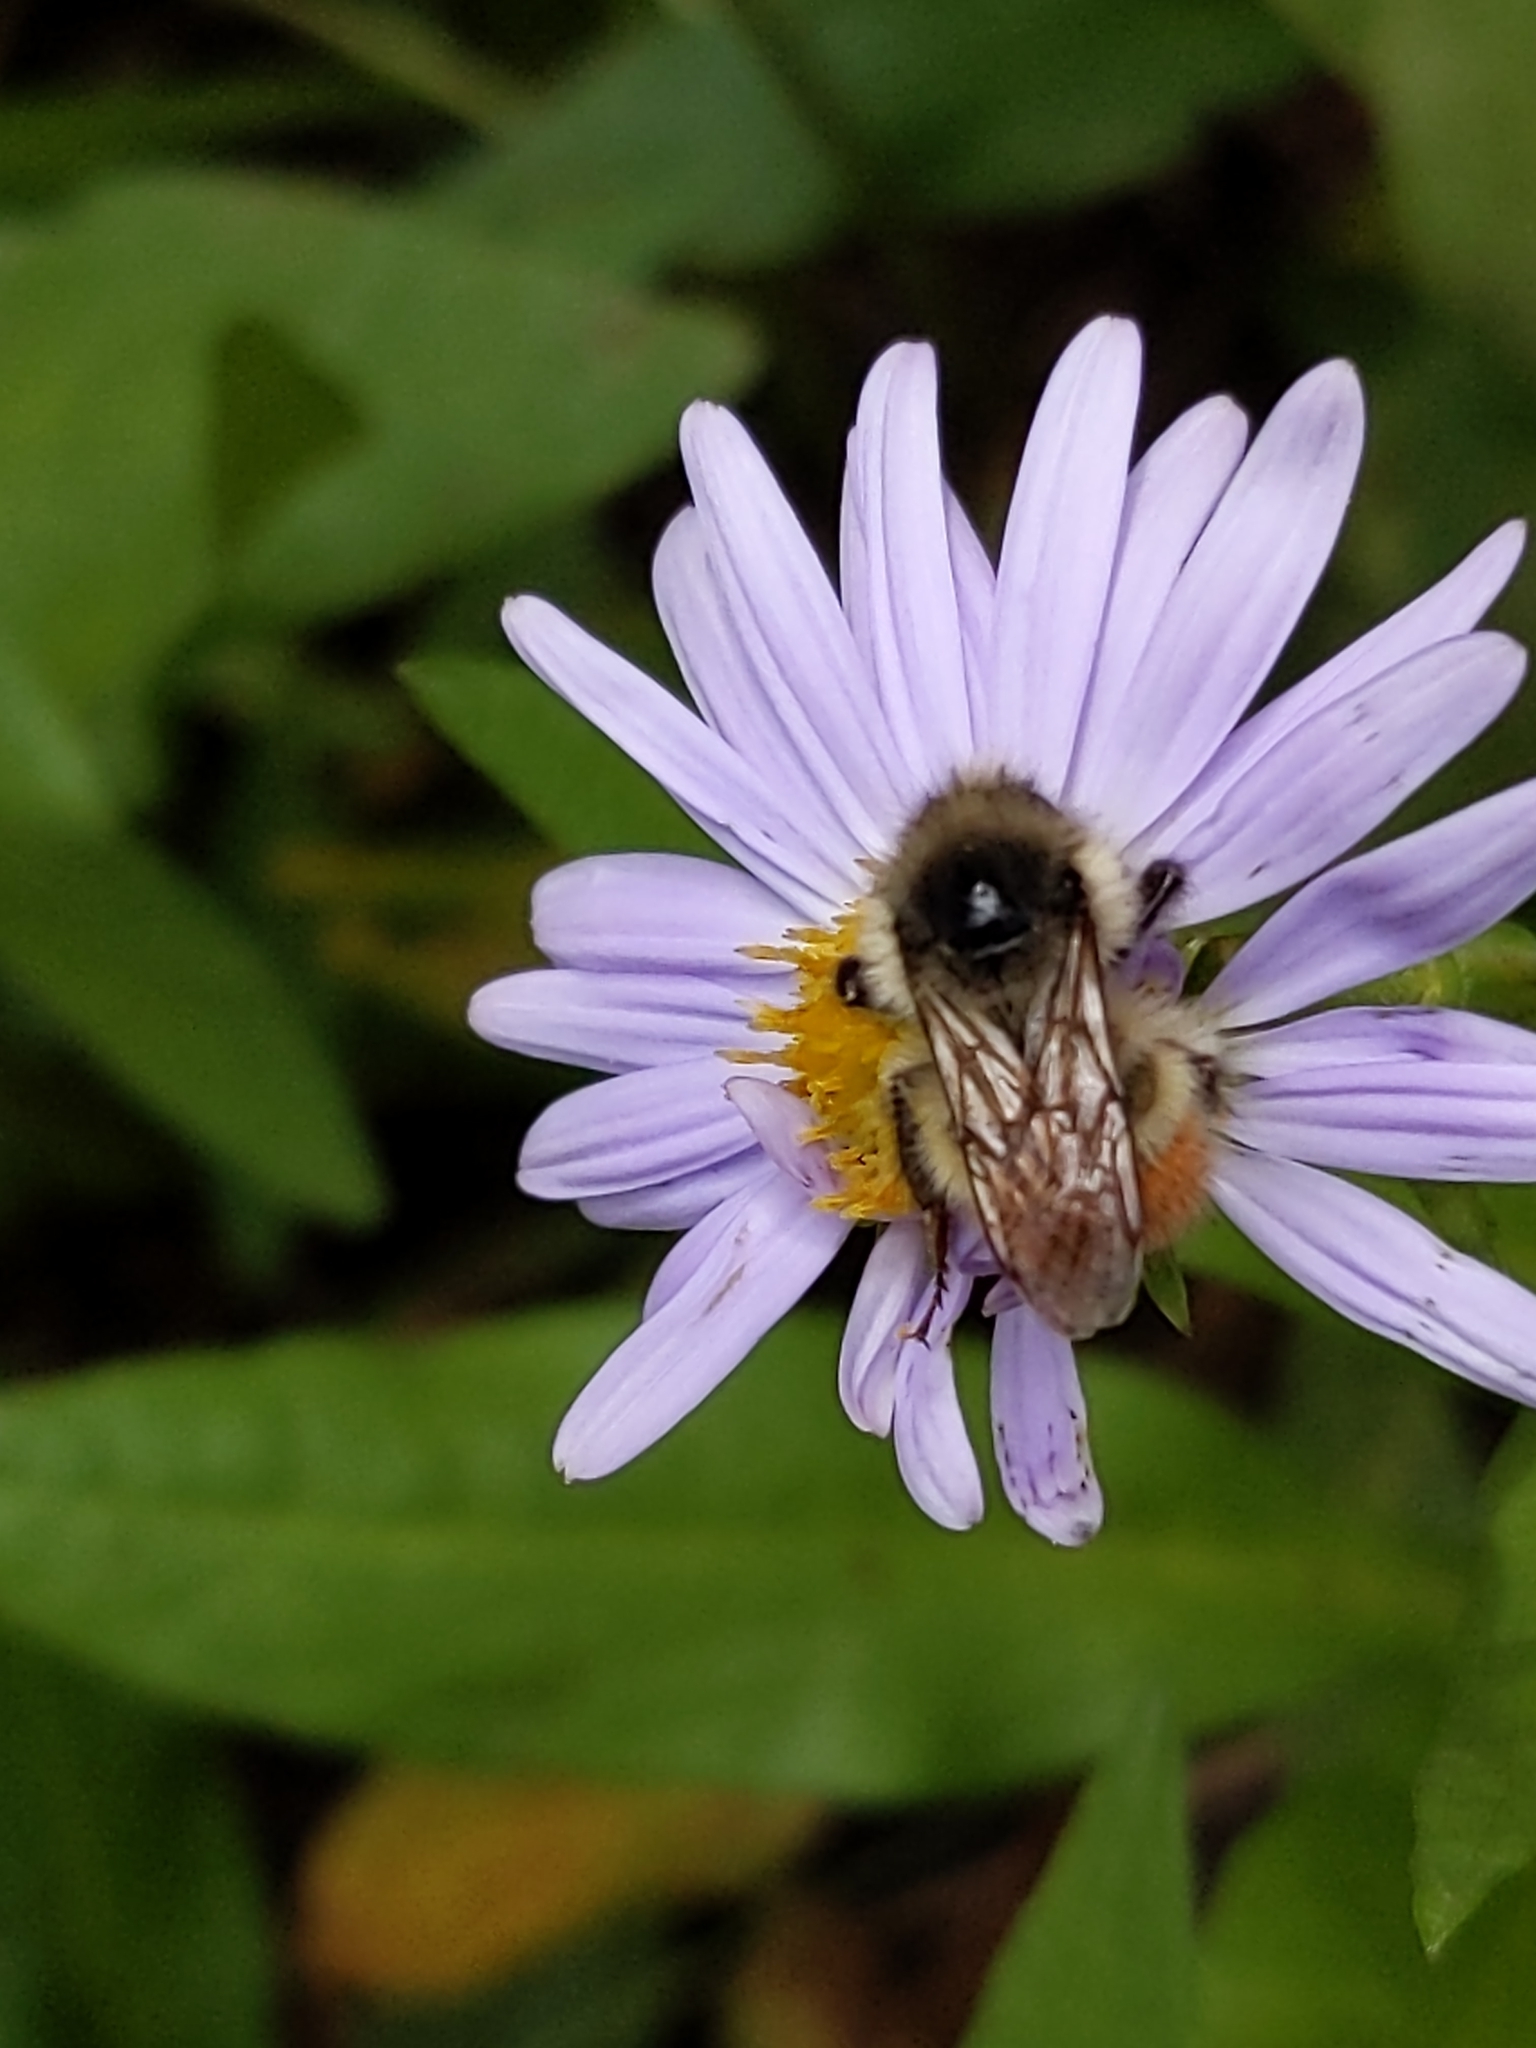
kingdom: Animalia
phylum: Arthropoda
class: Insecta
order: Hymenoptera
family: Apidae
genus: Bombus
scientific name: Bombus flavifrons
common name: Yellow head bumble bee
